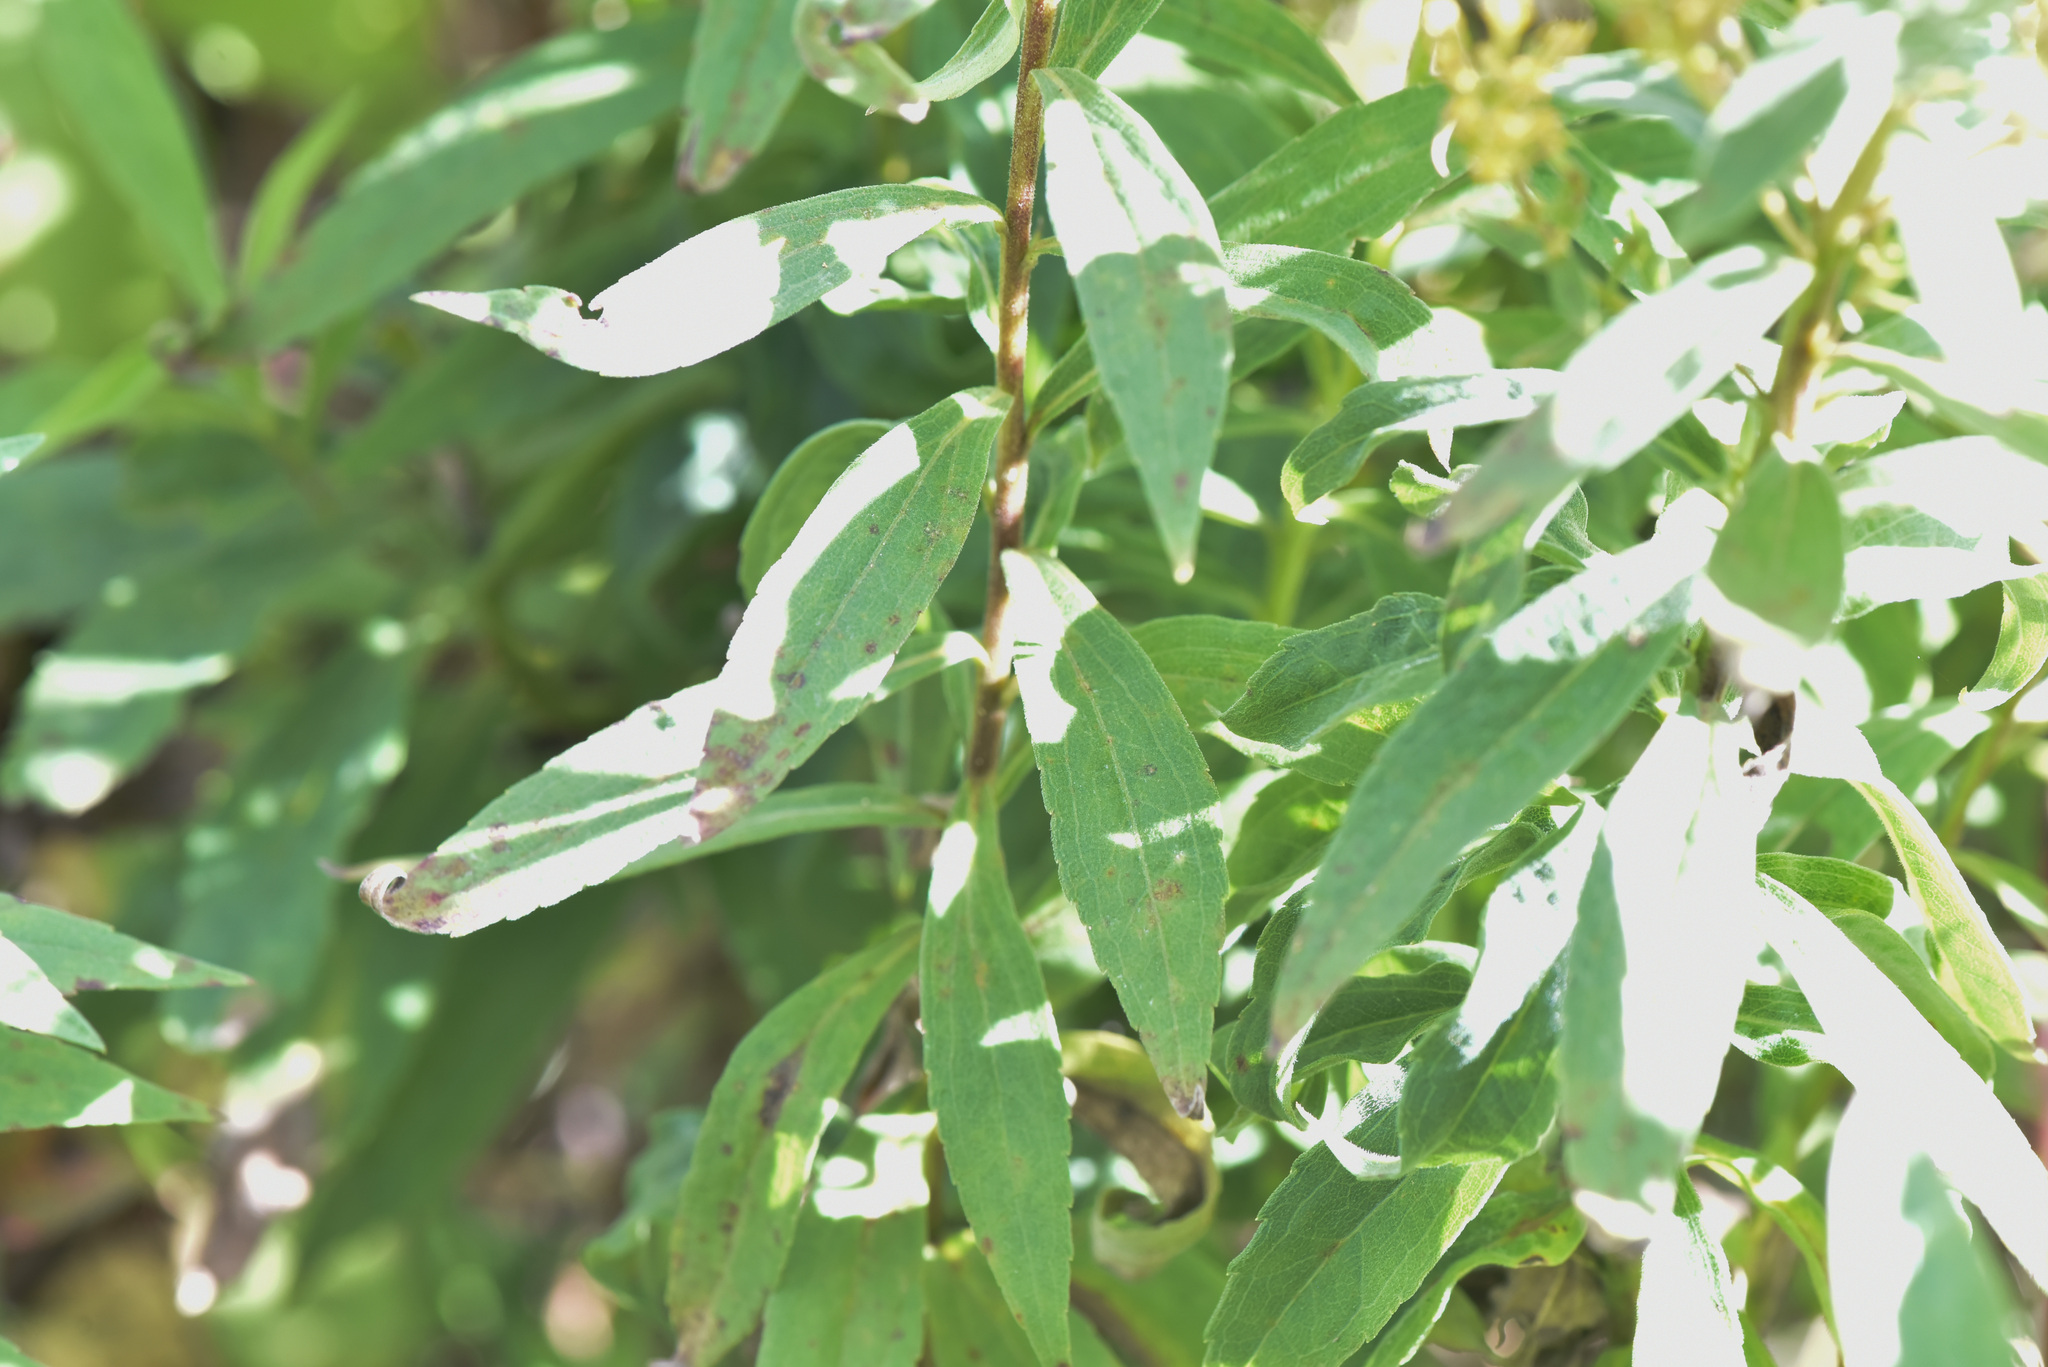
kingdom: Plantae
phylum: Tracheophyta
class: Magnoliopsida
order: Myrtales
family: Onagraceae
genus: Chamaenerion
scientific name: Chamaenerion angustifolium
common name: Fireweed
